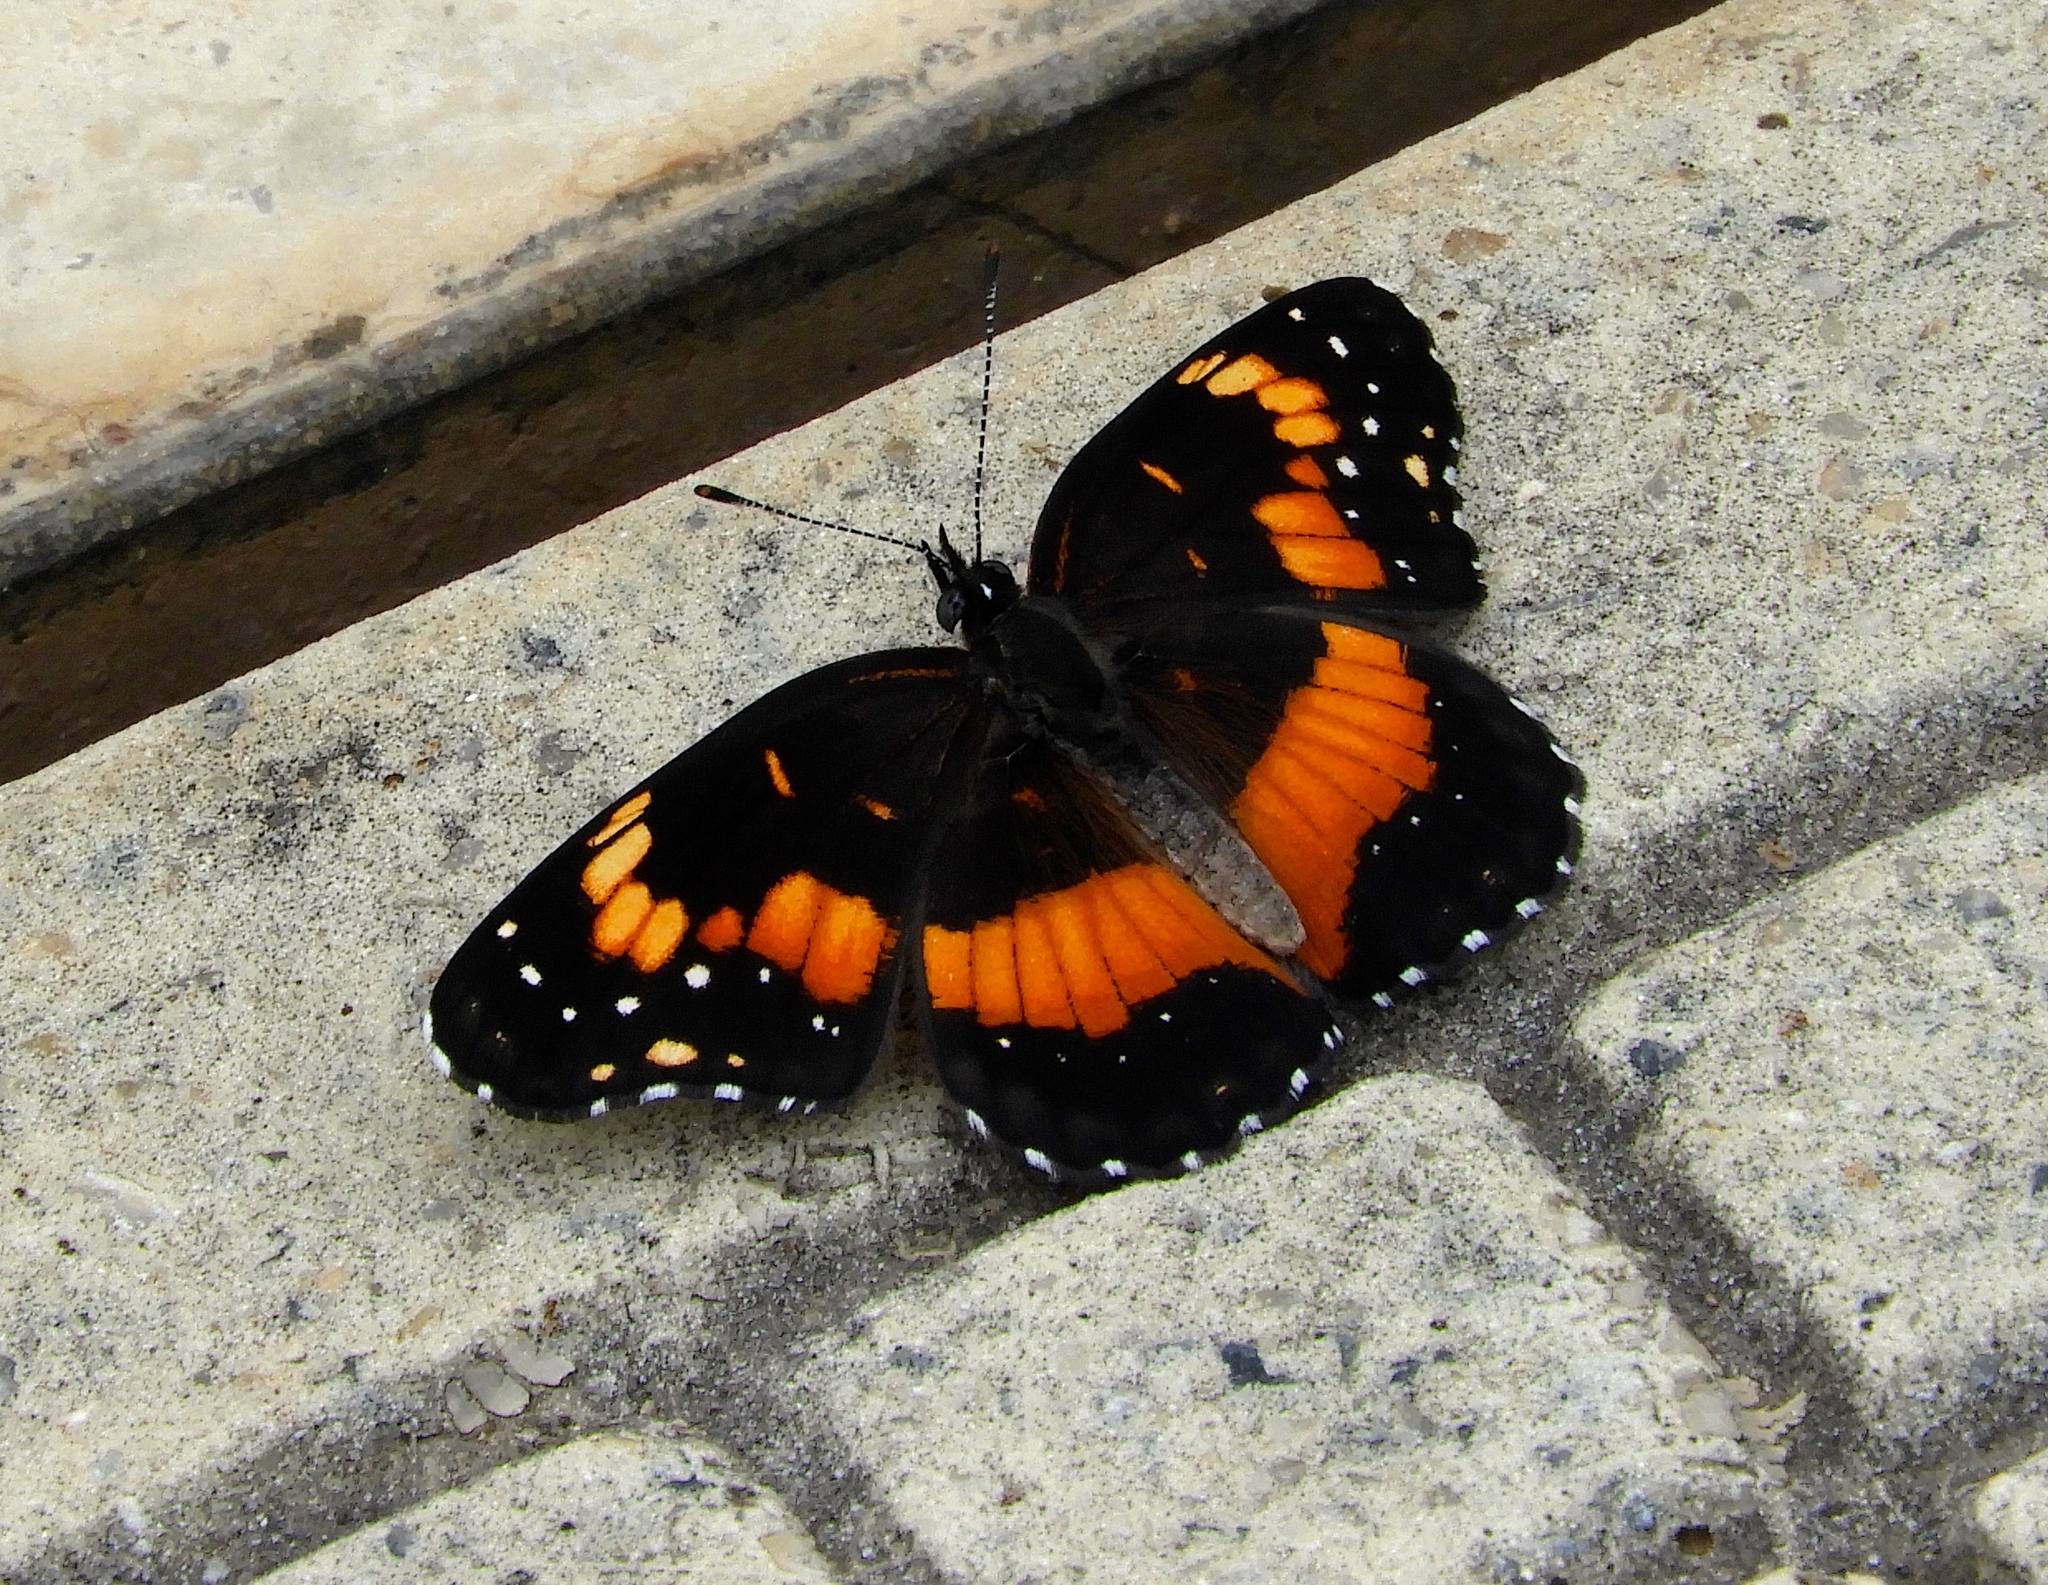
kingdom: Animalia
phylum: Arthropoda
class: Insecta
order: Lepidoptera
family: Nymphalidae
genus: Chlosyne
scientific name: Chlosyne lacinia
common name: Bordered patch
